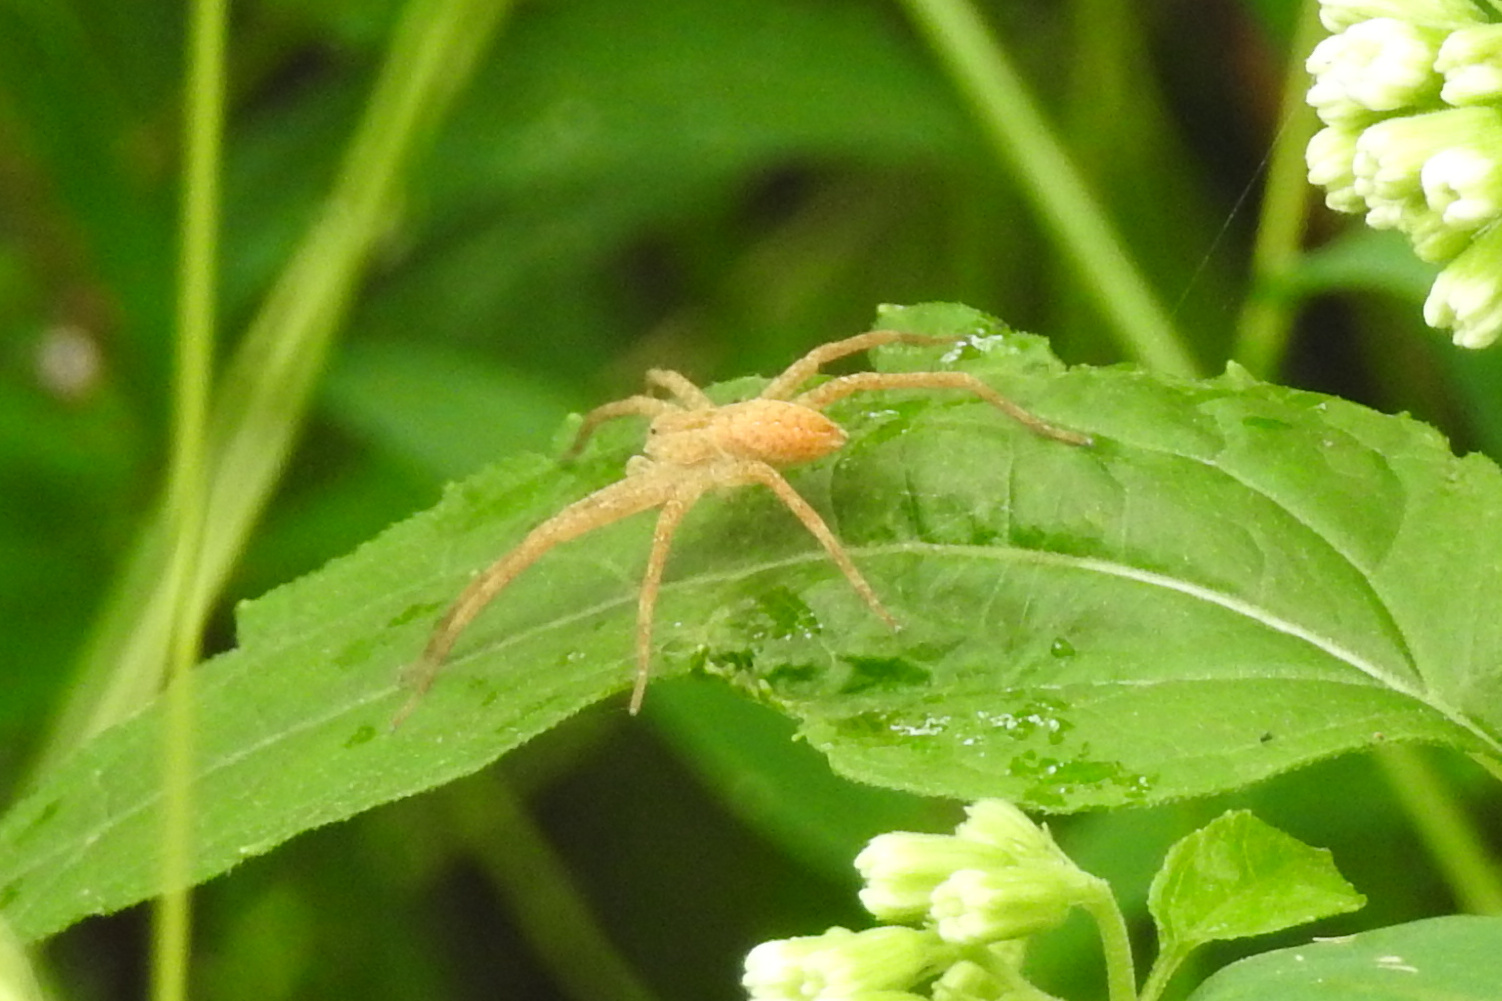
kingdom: Animalia
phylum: Arthropoda
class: Arachnida
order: Araneae
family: Pisauridae
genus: Pisaurina
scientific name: Pisaurina mira
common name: American nursery web spider
